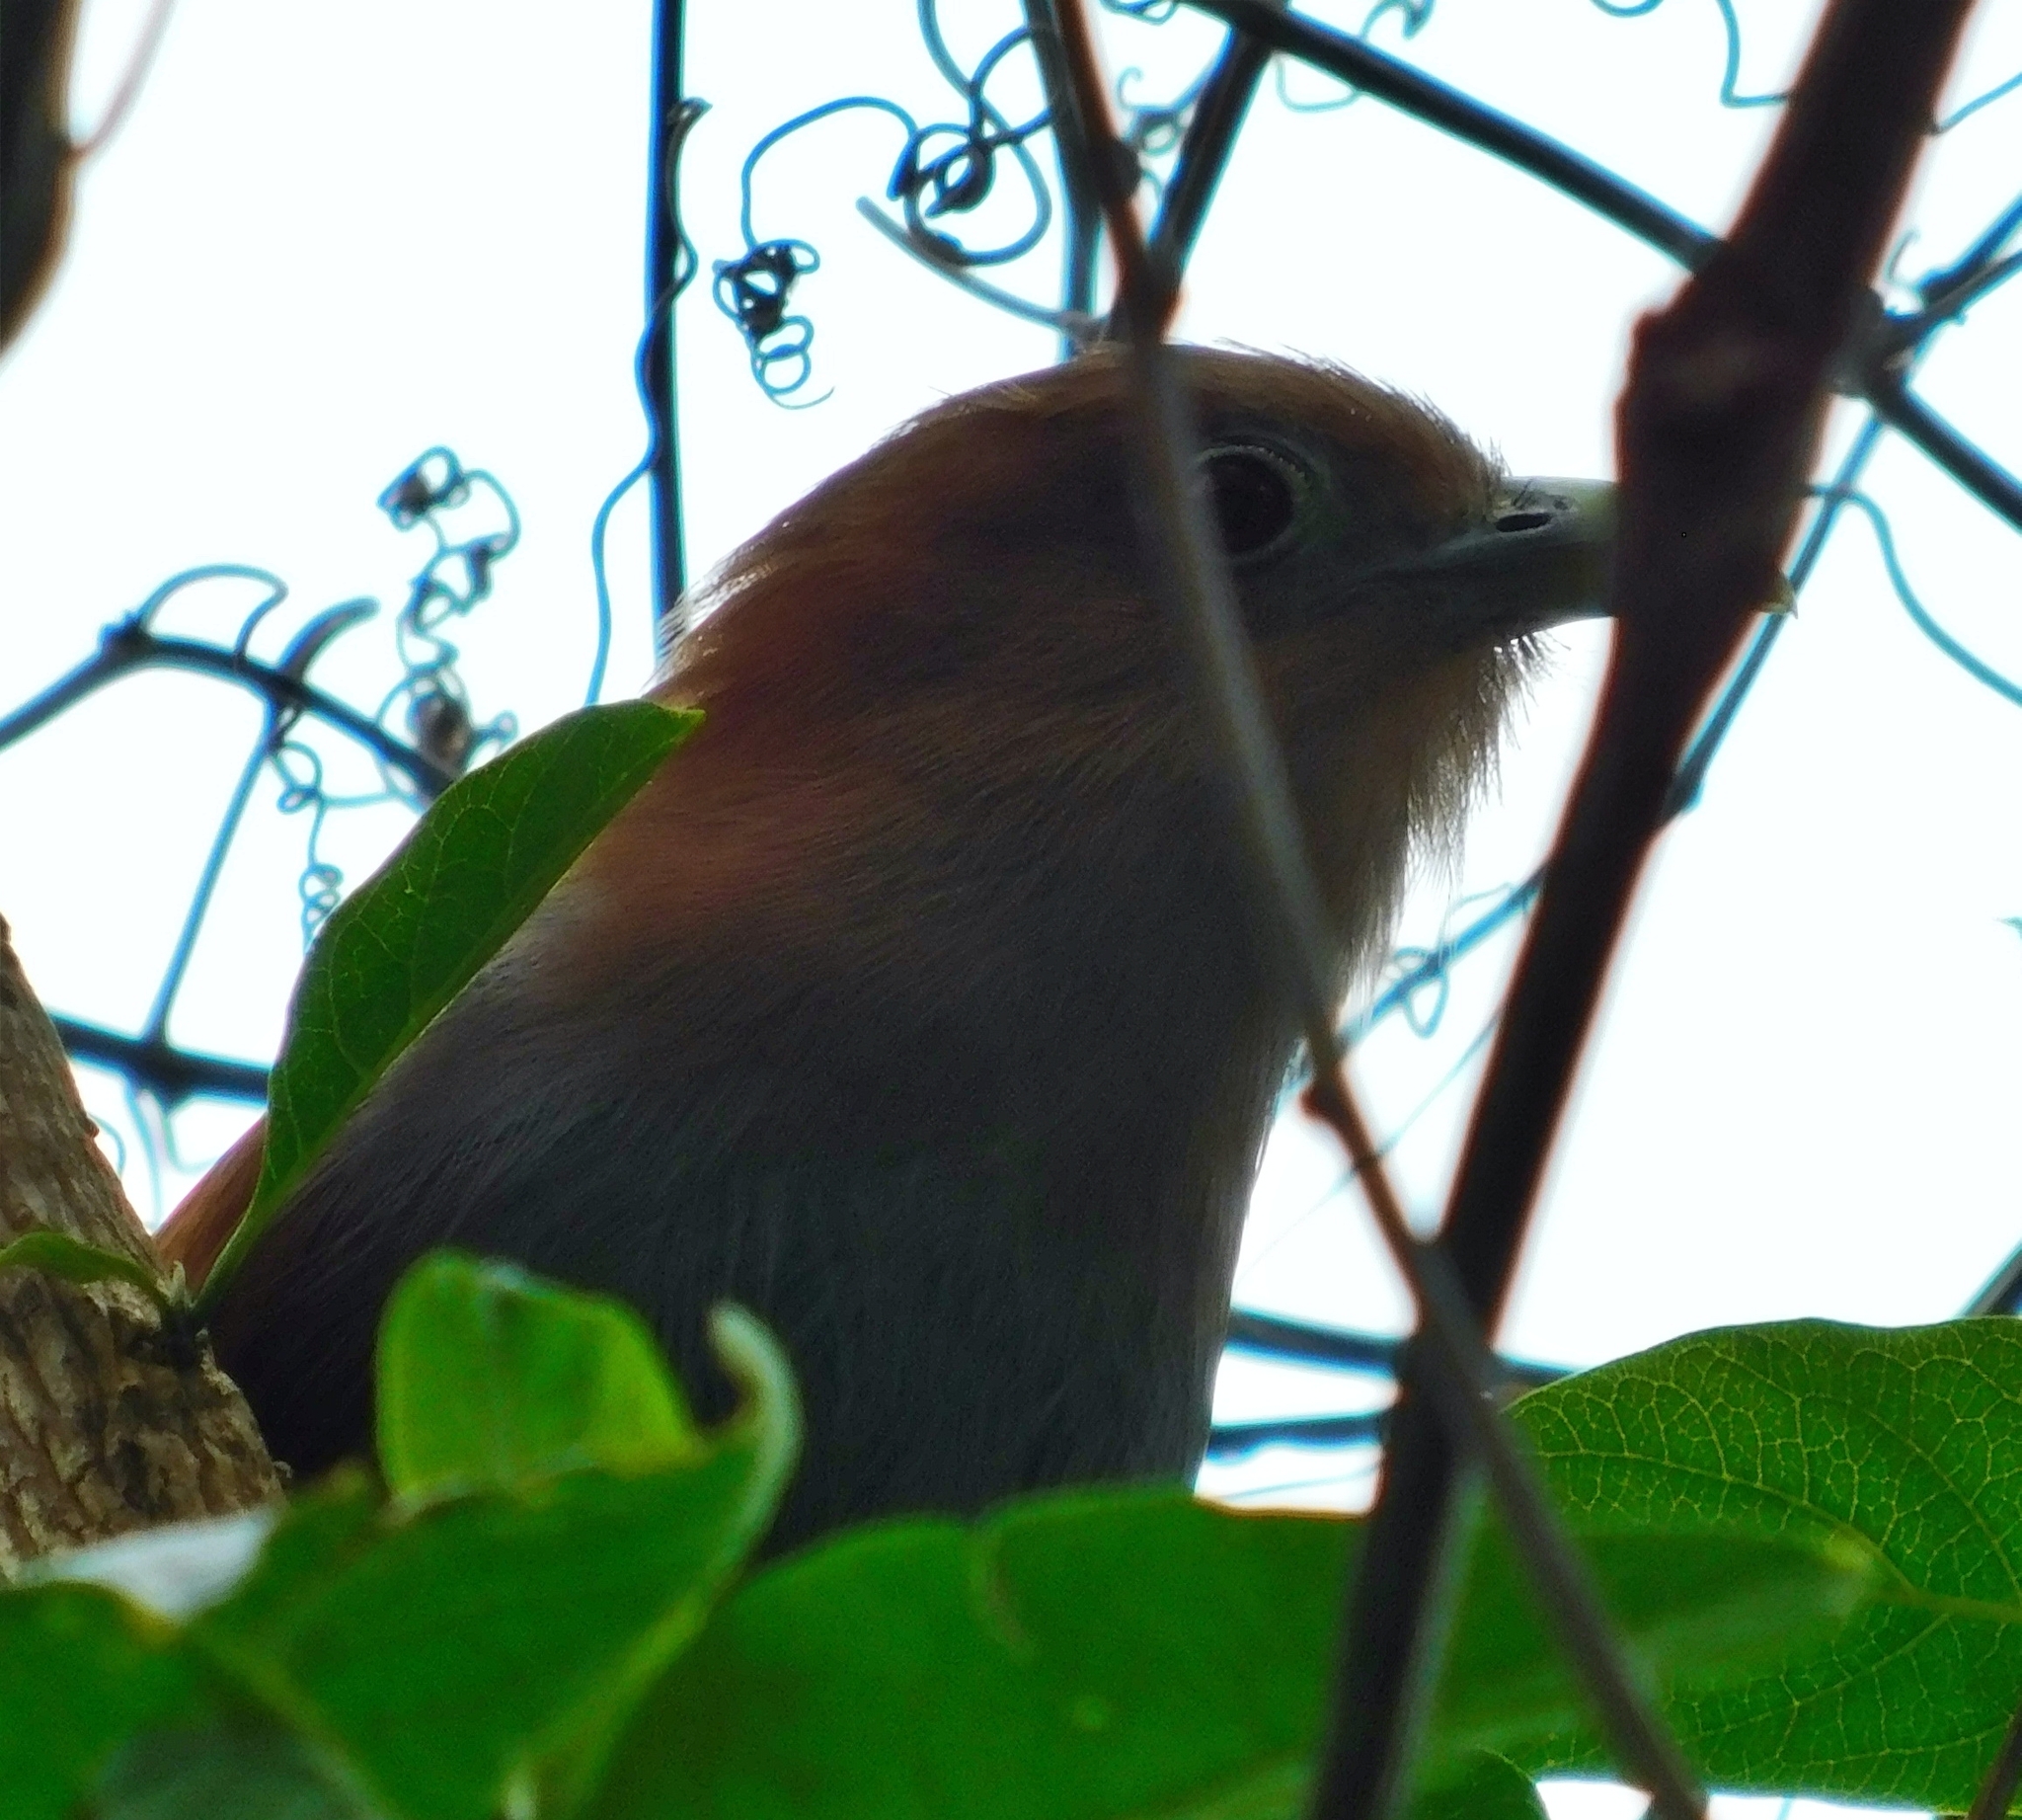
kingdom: Animalia
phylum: Chordata
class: Aves
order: Cuculiformes
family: Cuculidae
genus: Piaya
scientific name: Piaya cayana
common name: Squirrel cuckoo
